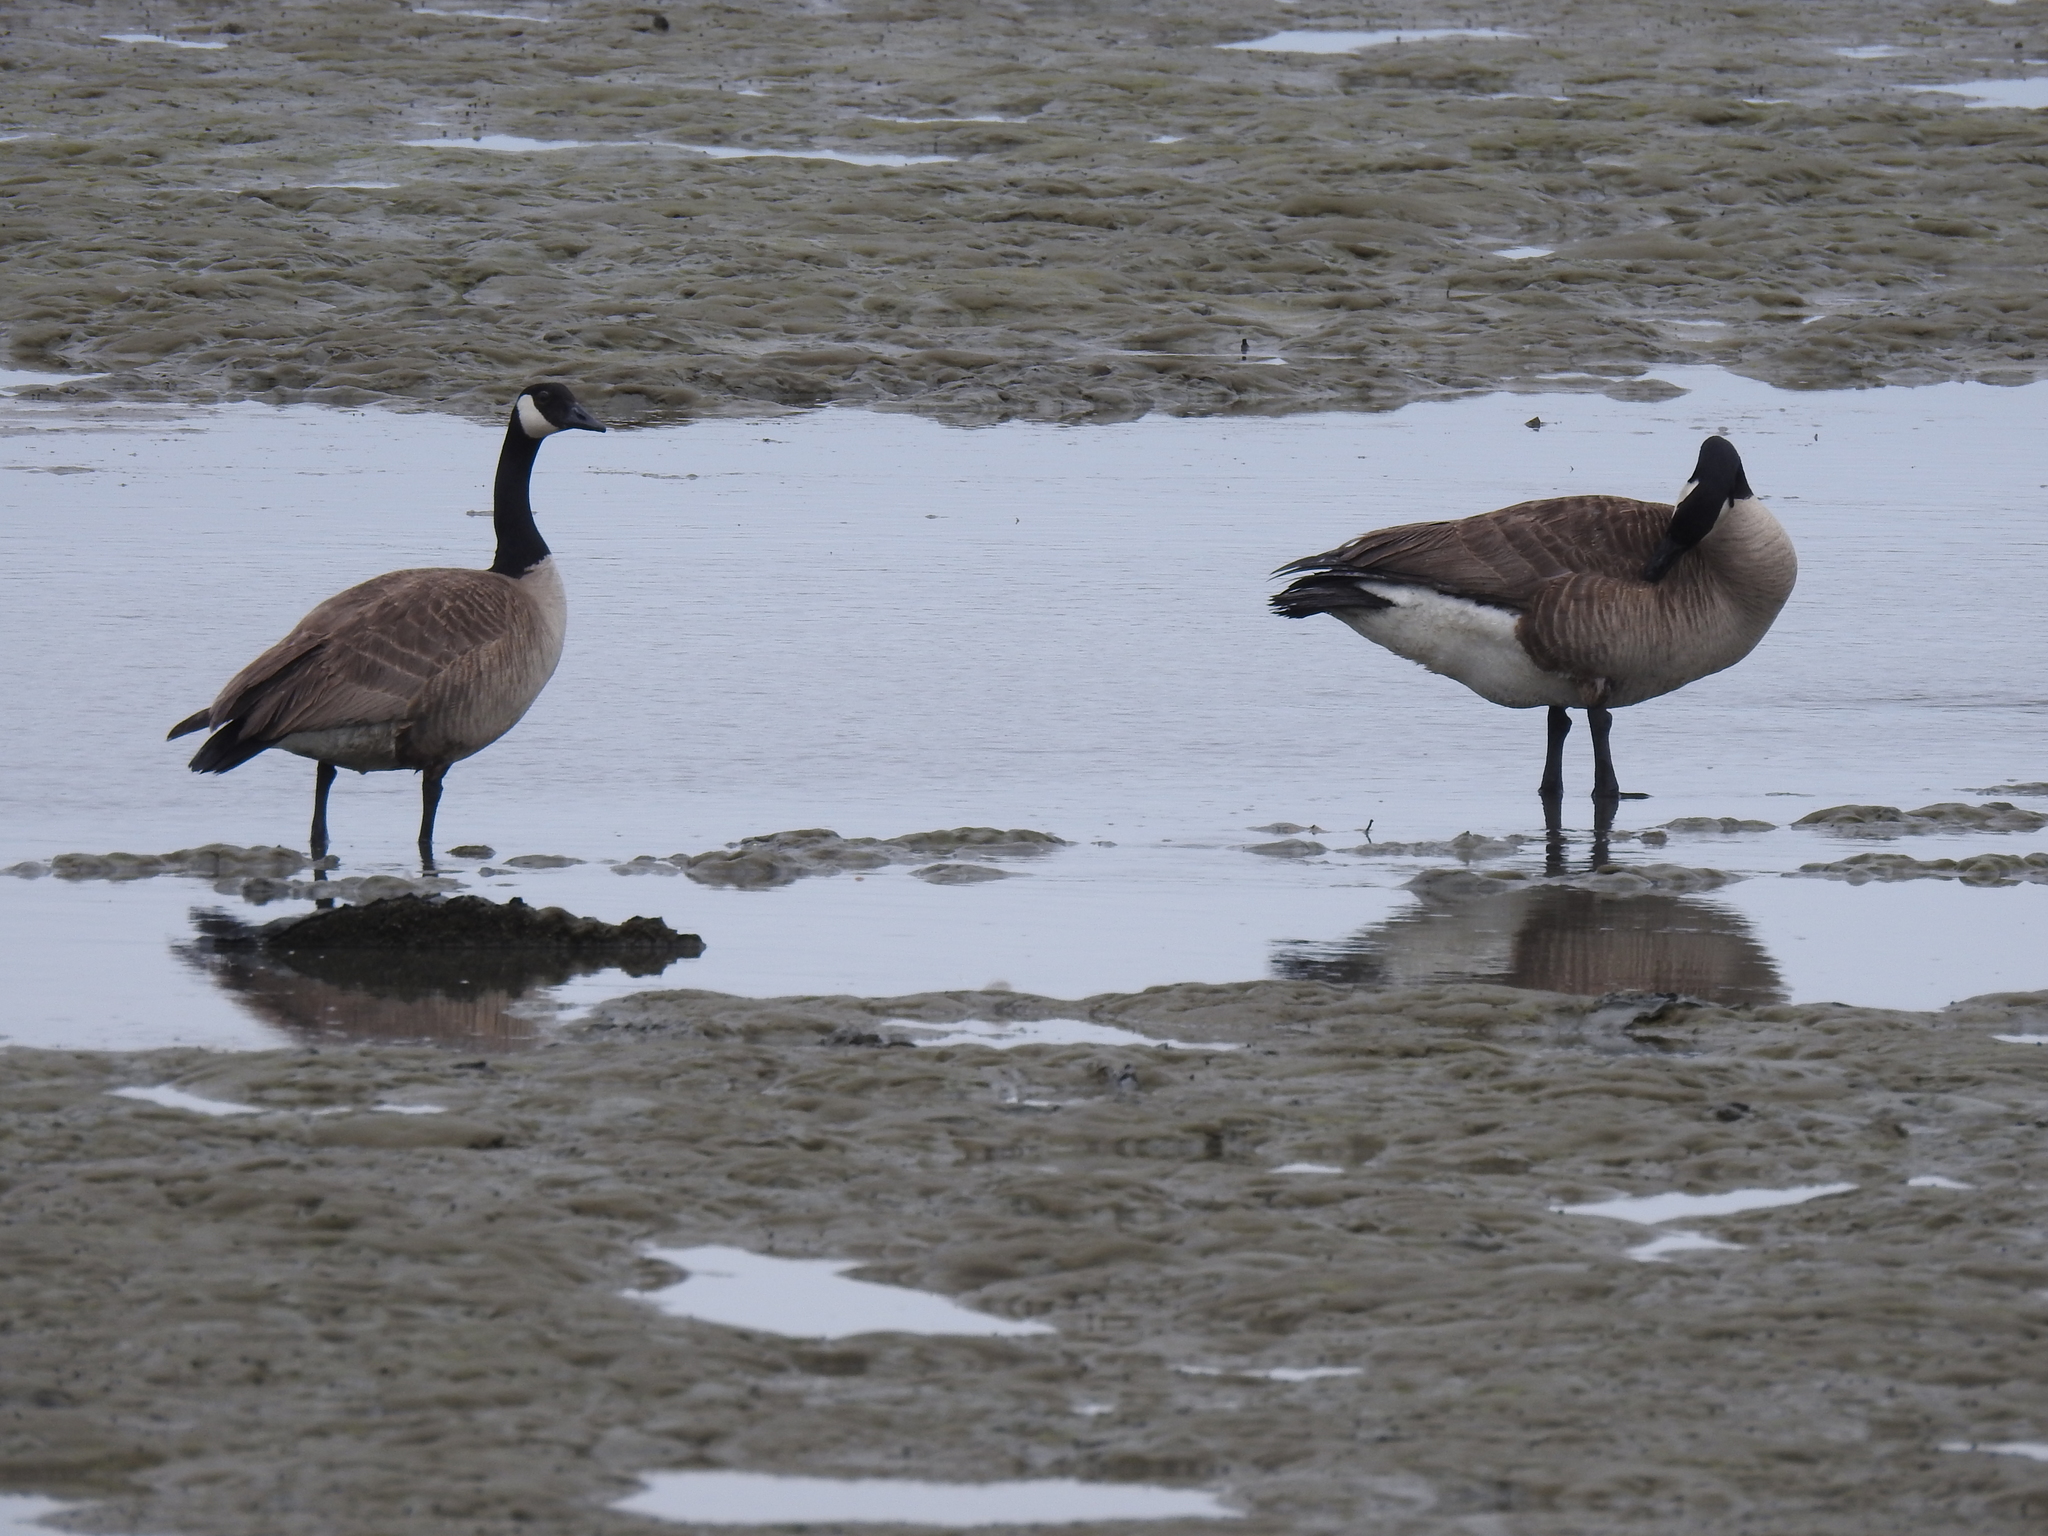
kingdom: Animalia
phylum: Chordata
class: Aves
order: Anseriformes
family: Anatidae
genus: Branta
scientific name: Branta canadensis
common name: Canada goose
